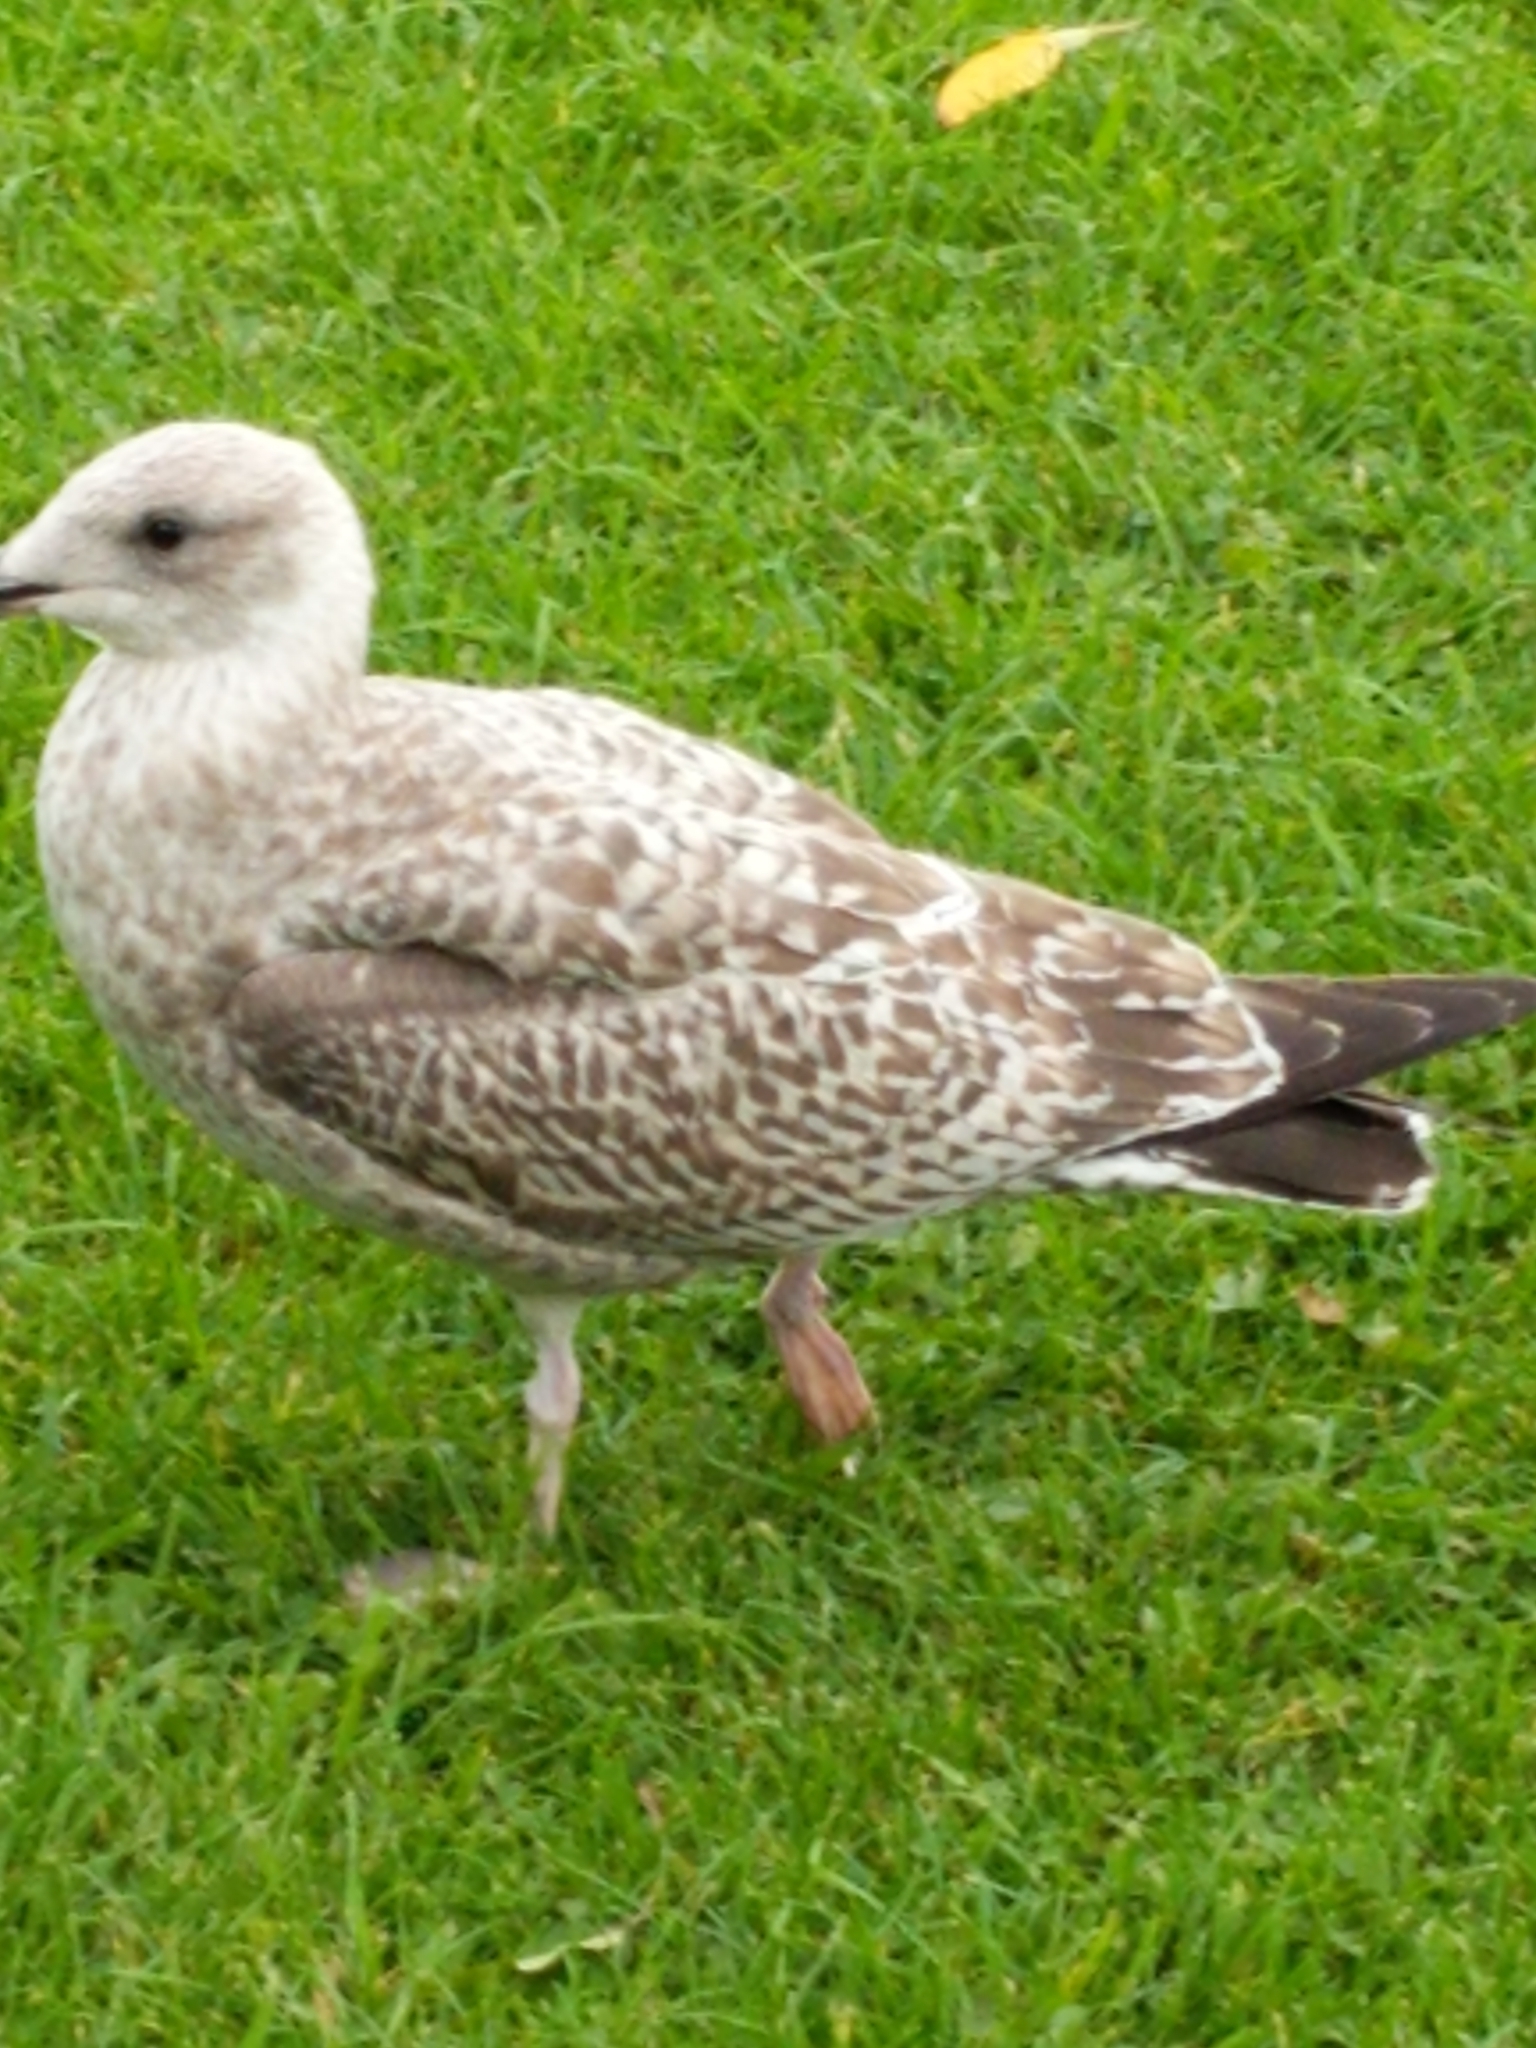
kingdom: Animalia
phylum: Chordata
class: Aves
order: Charadriiformes
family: Laridae
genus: Larus
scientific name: Larus argentatus
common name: Herring gull
